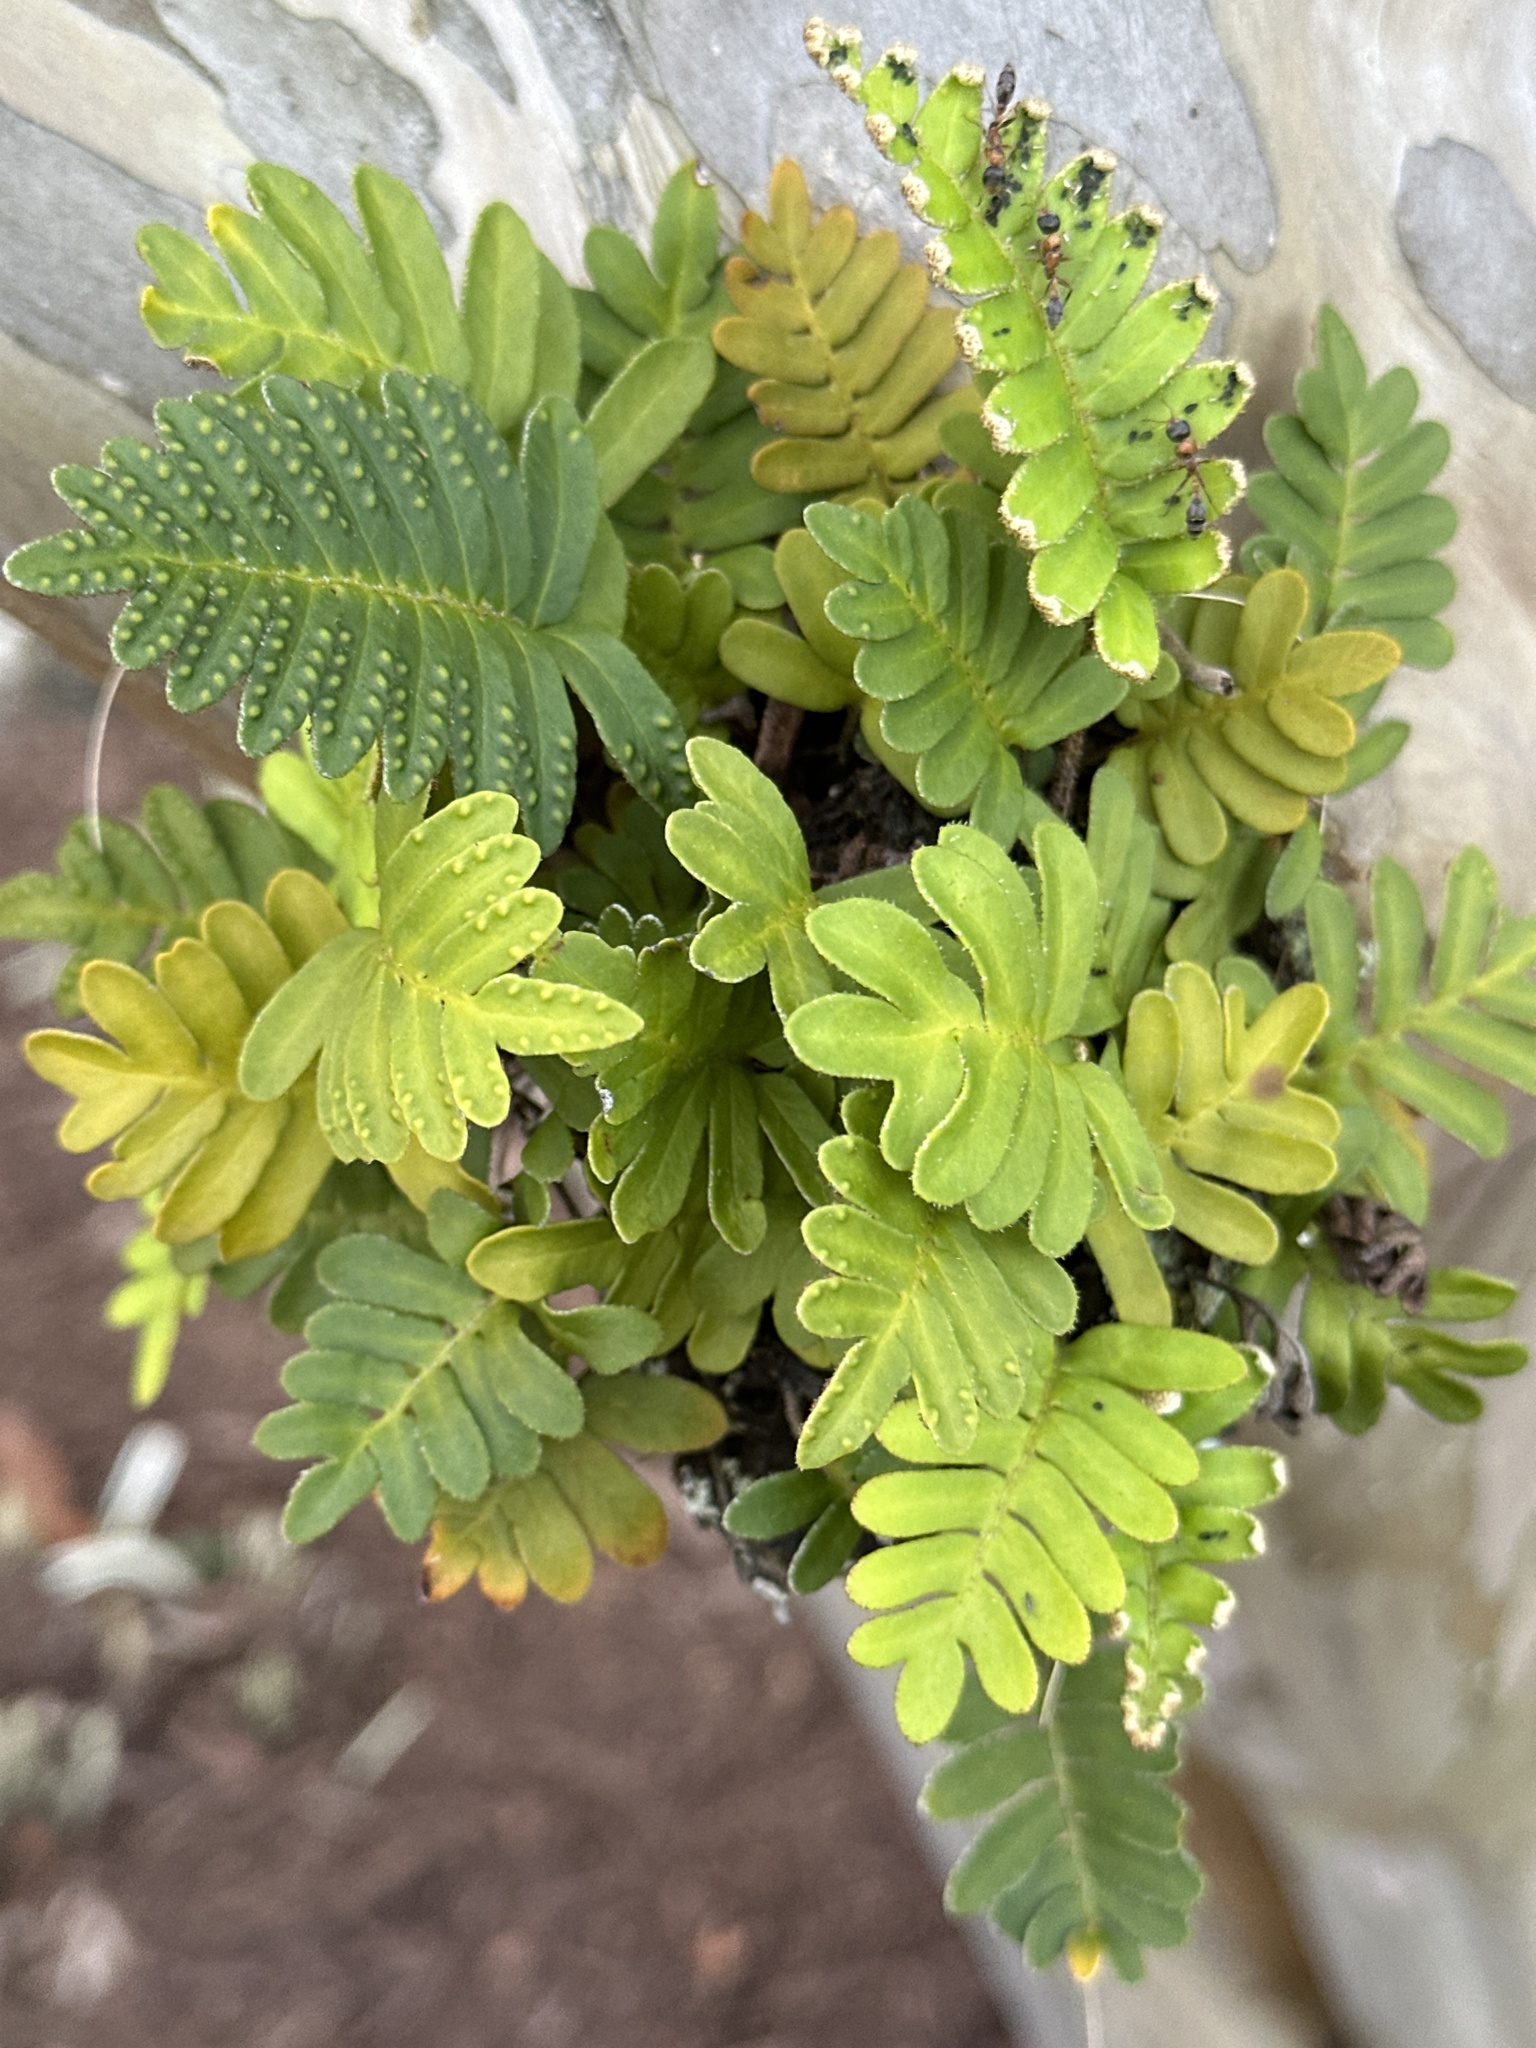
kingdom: Plantae
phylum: Tracheophyta
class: Polypodiopsida
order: Polypodiales
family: Polypodiaceae
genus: Pleopeltis
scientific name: Pleopeltis michauxiana
